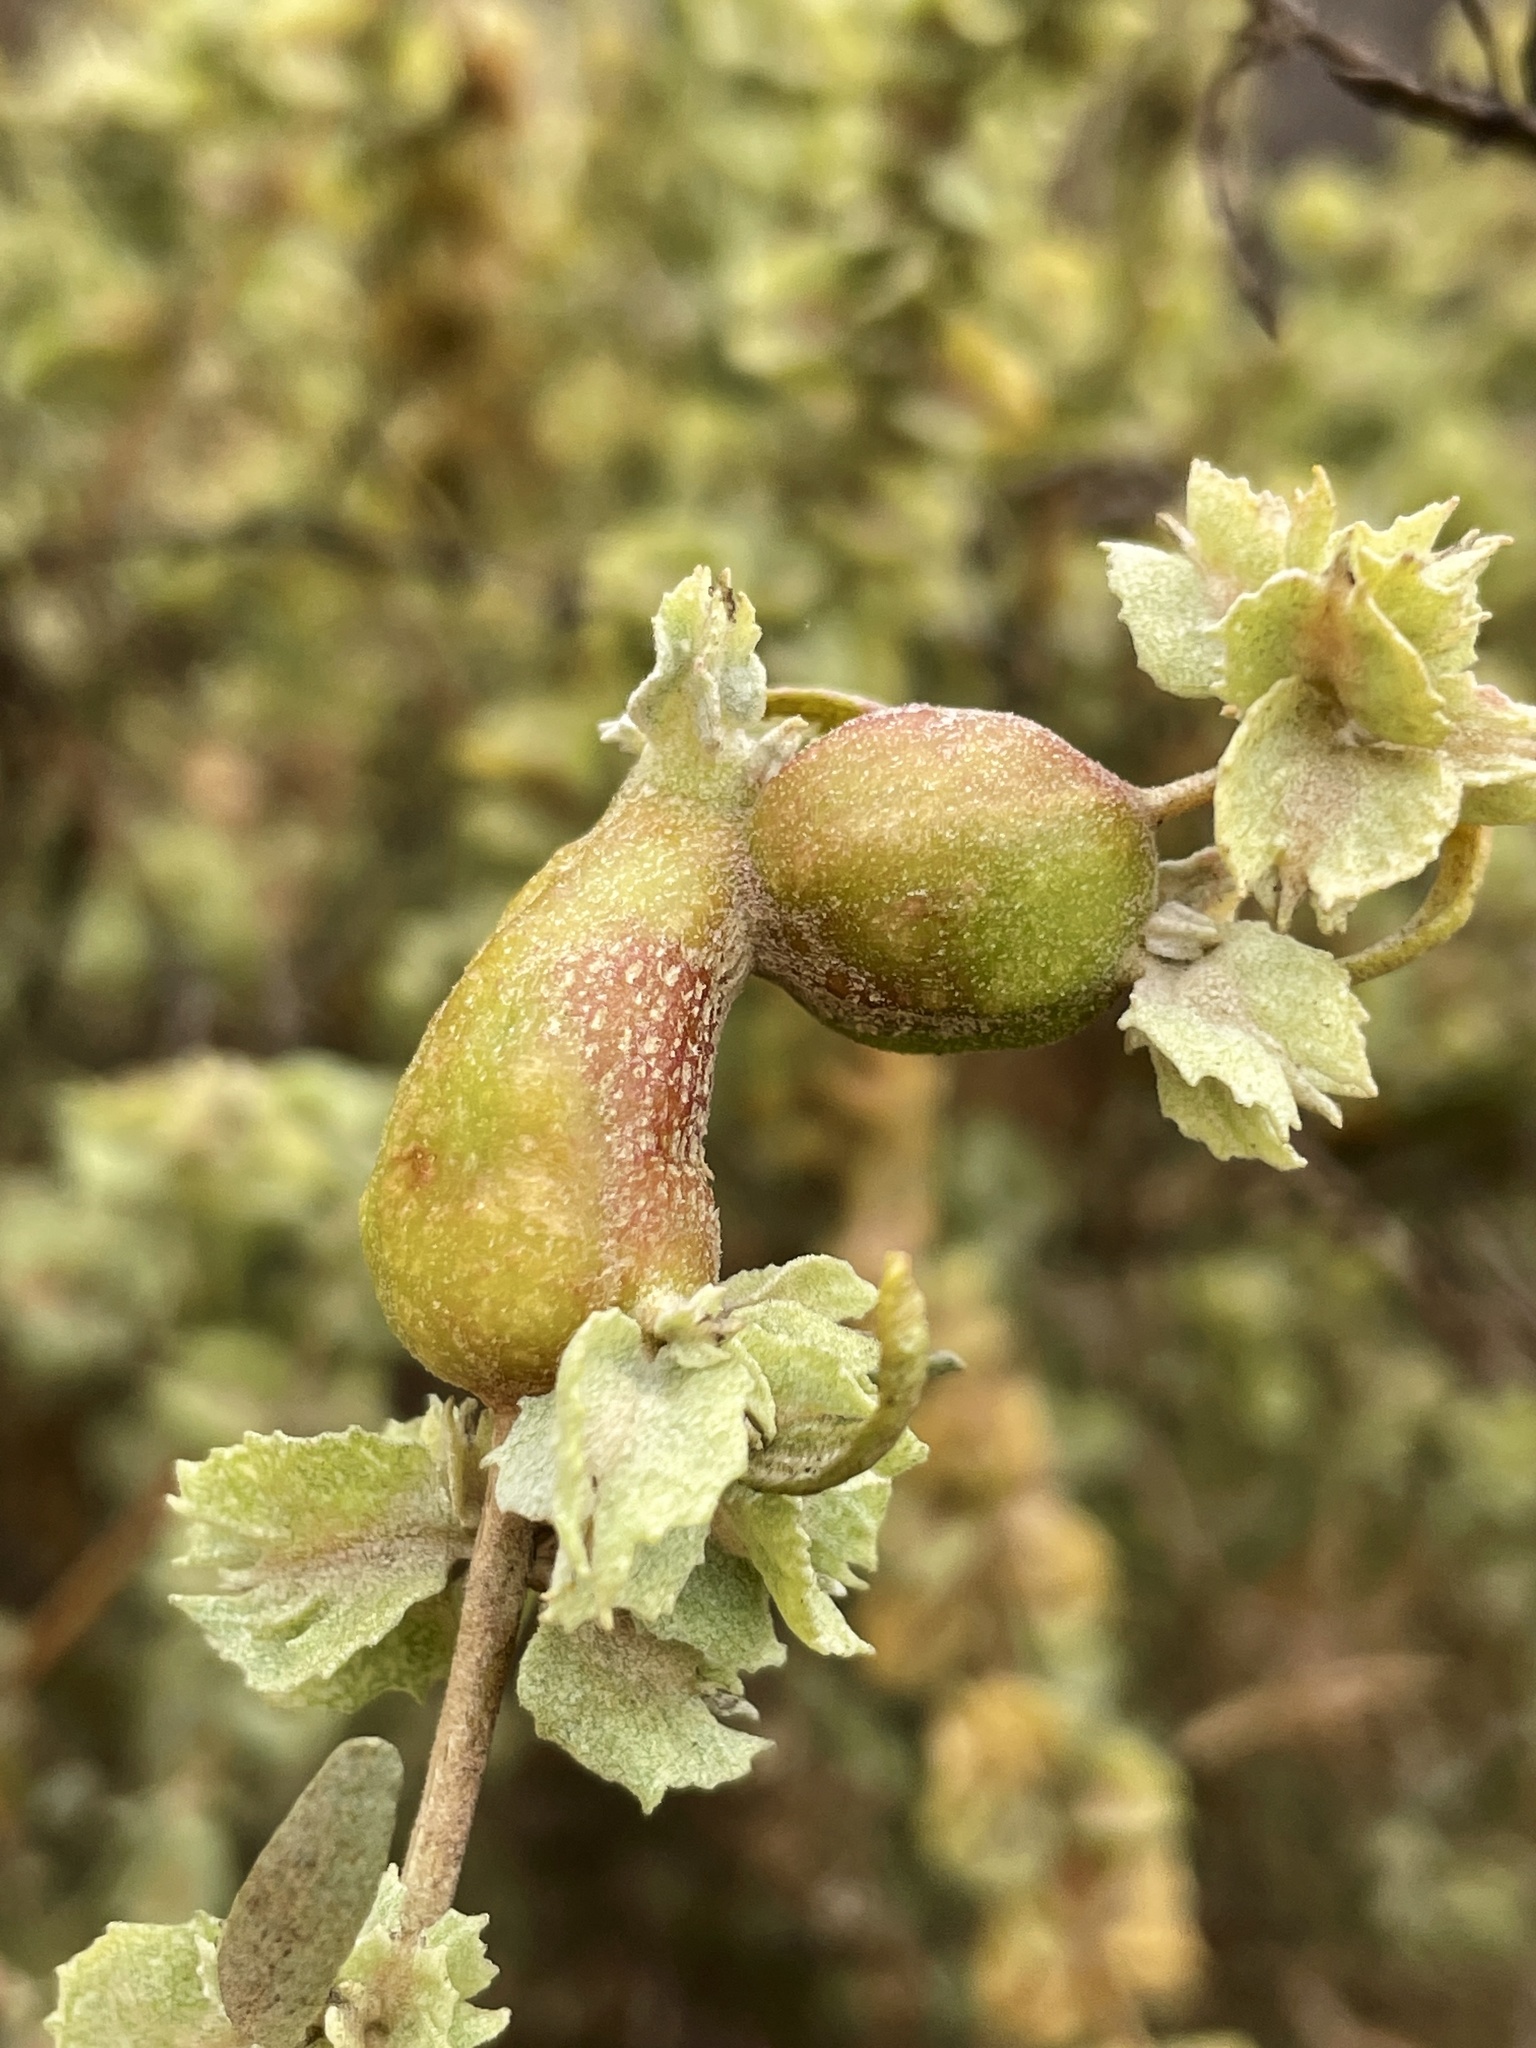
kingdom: Animalia
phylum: Arthropoda
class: Insecta
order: Diptera
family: Cecidomyiidae
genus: Asphondylia
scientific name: Asphondylia atriplicis
